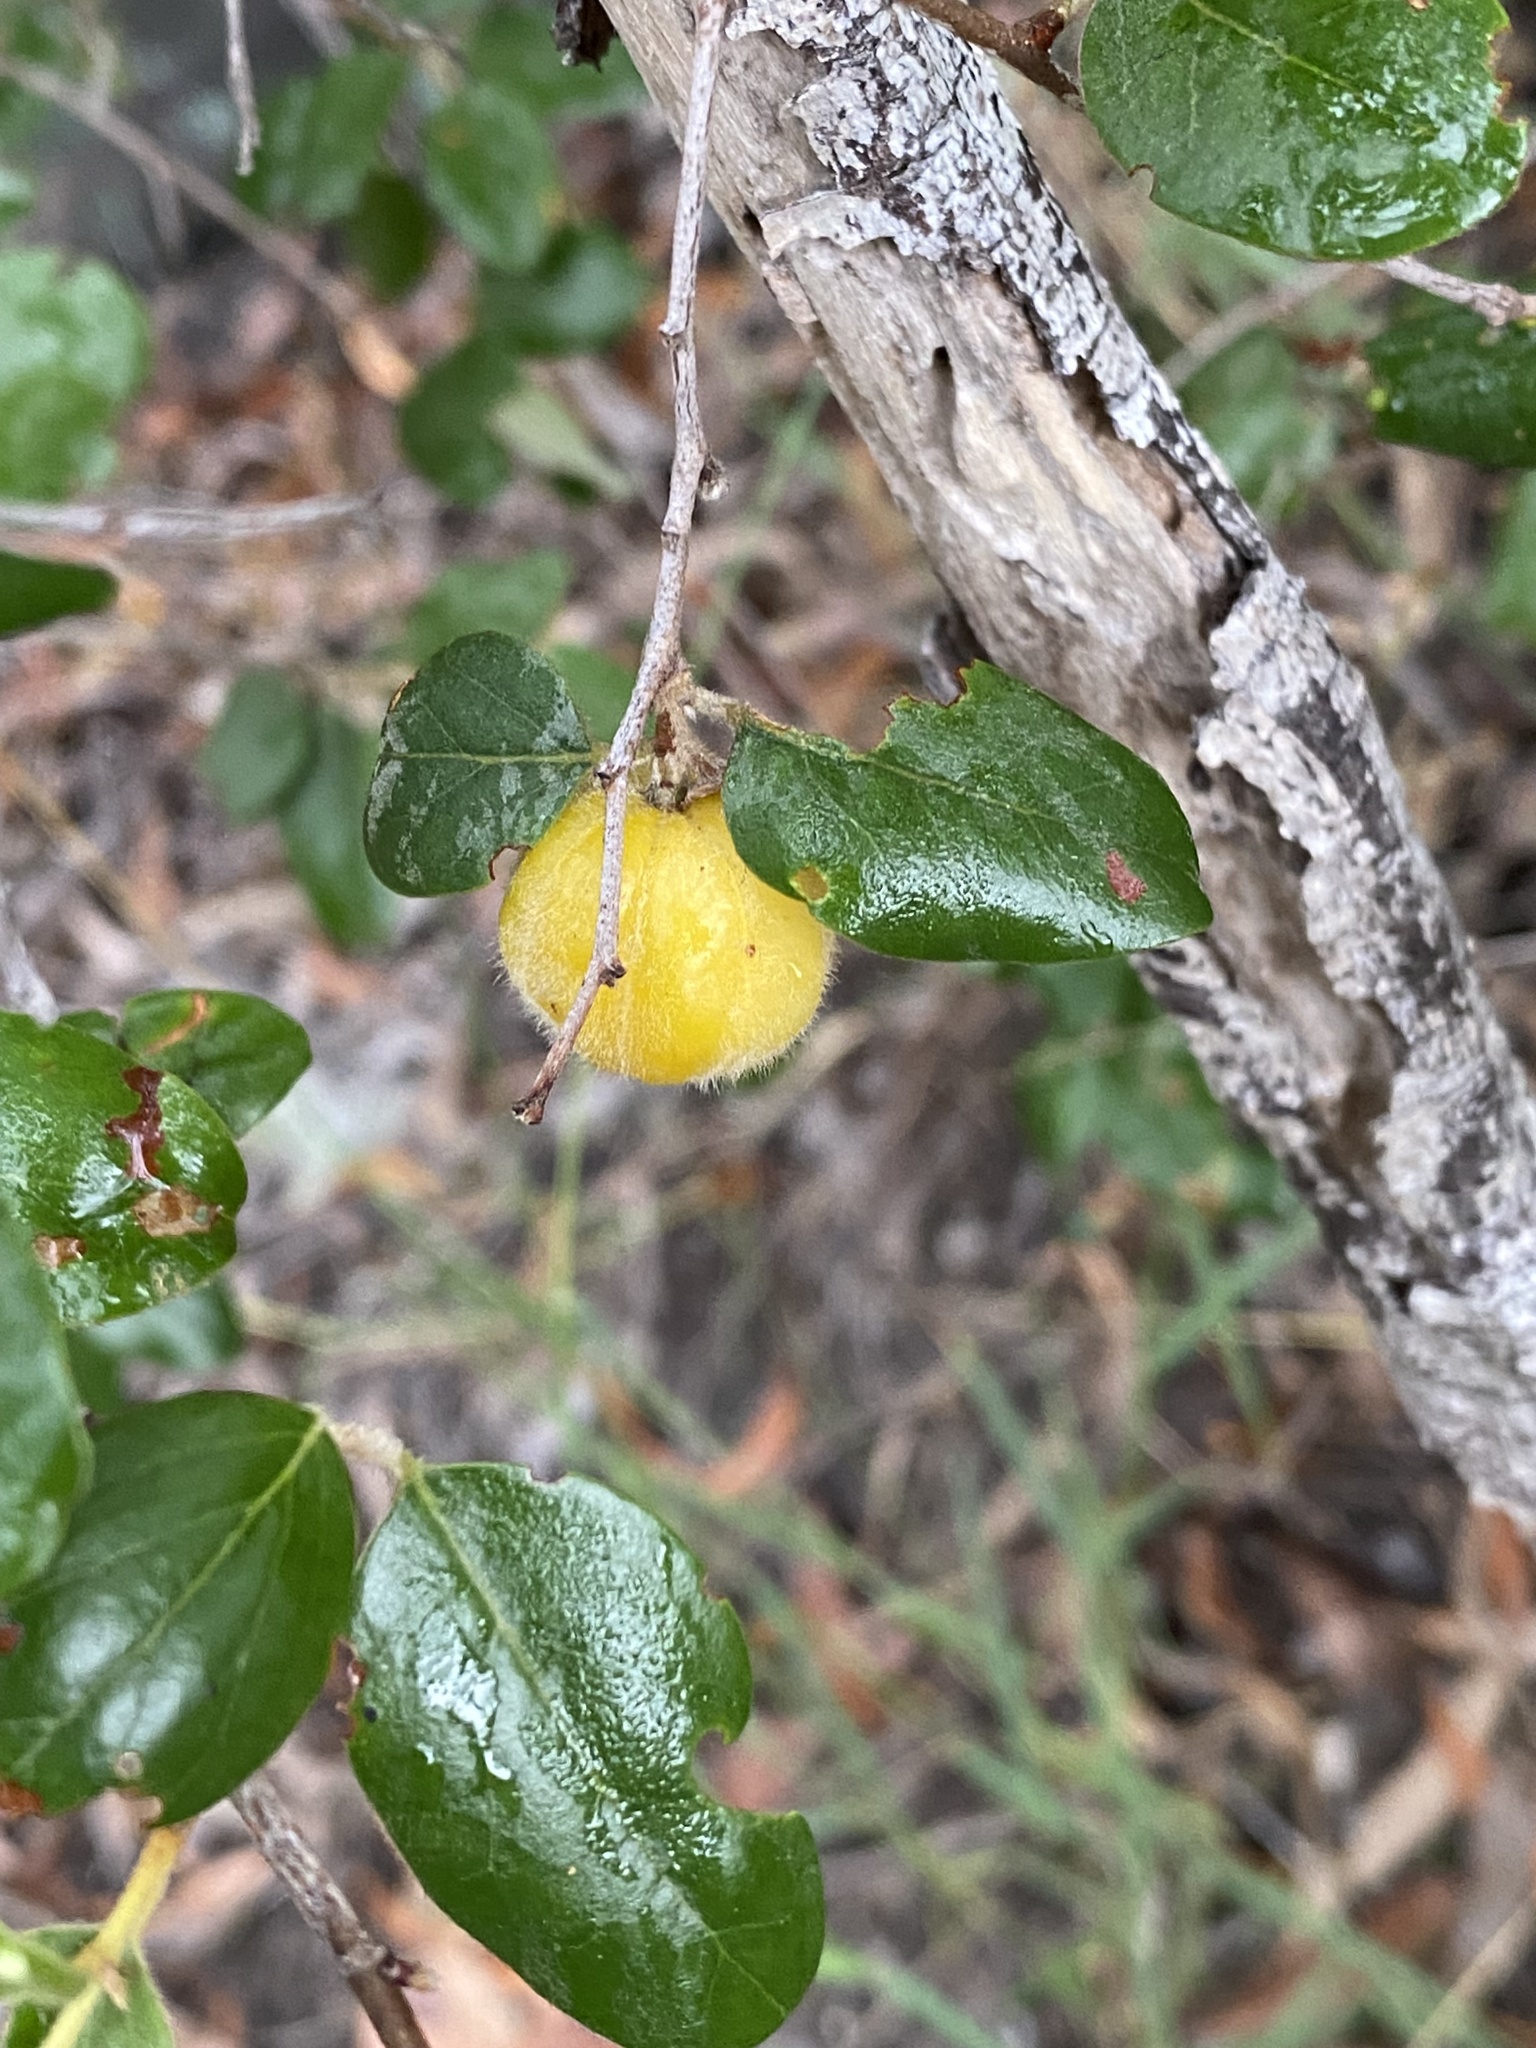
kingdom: Plantae
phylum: Tracheophyta
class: Magnoliopsida
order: Malpighiales
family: Picrodendraceae
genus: Petalostigma
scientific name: Petalostigma pubescens
